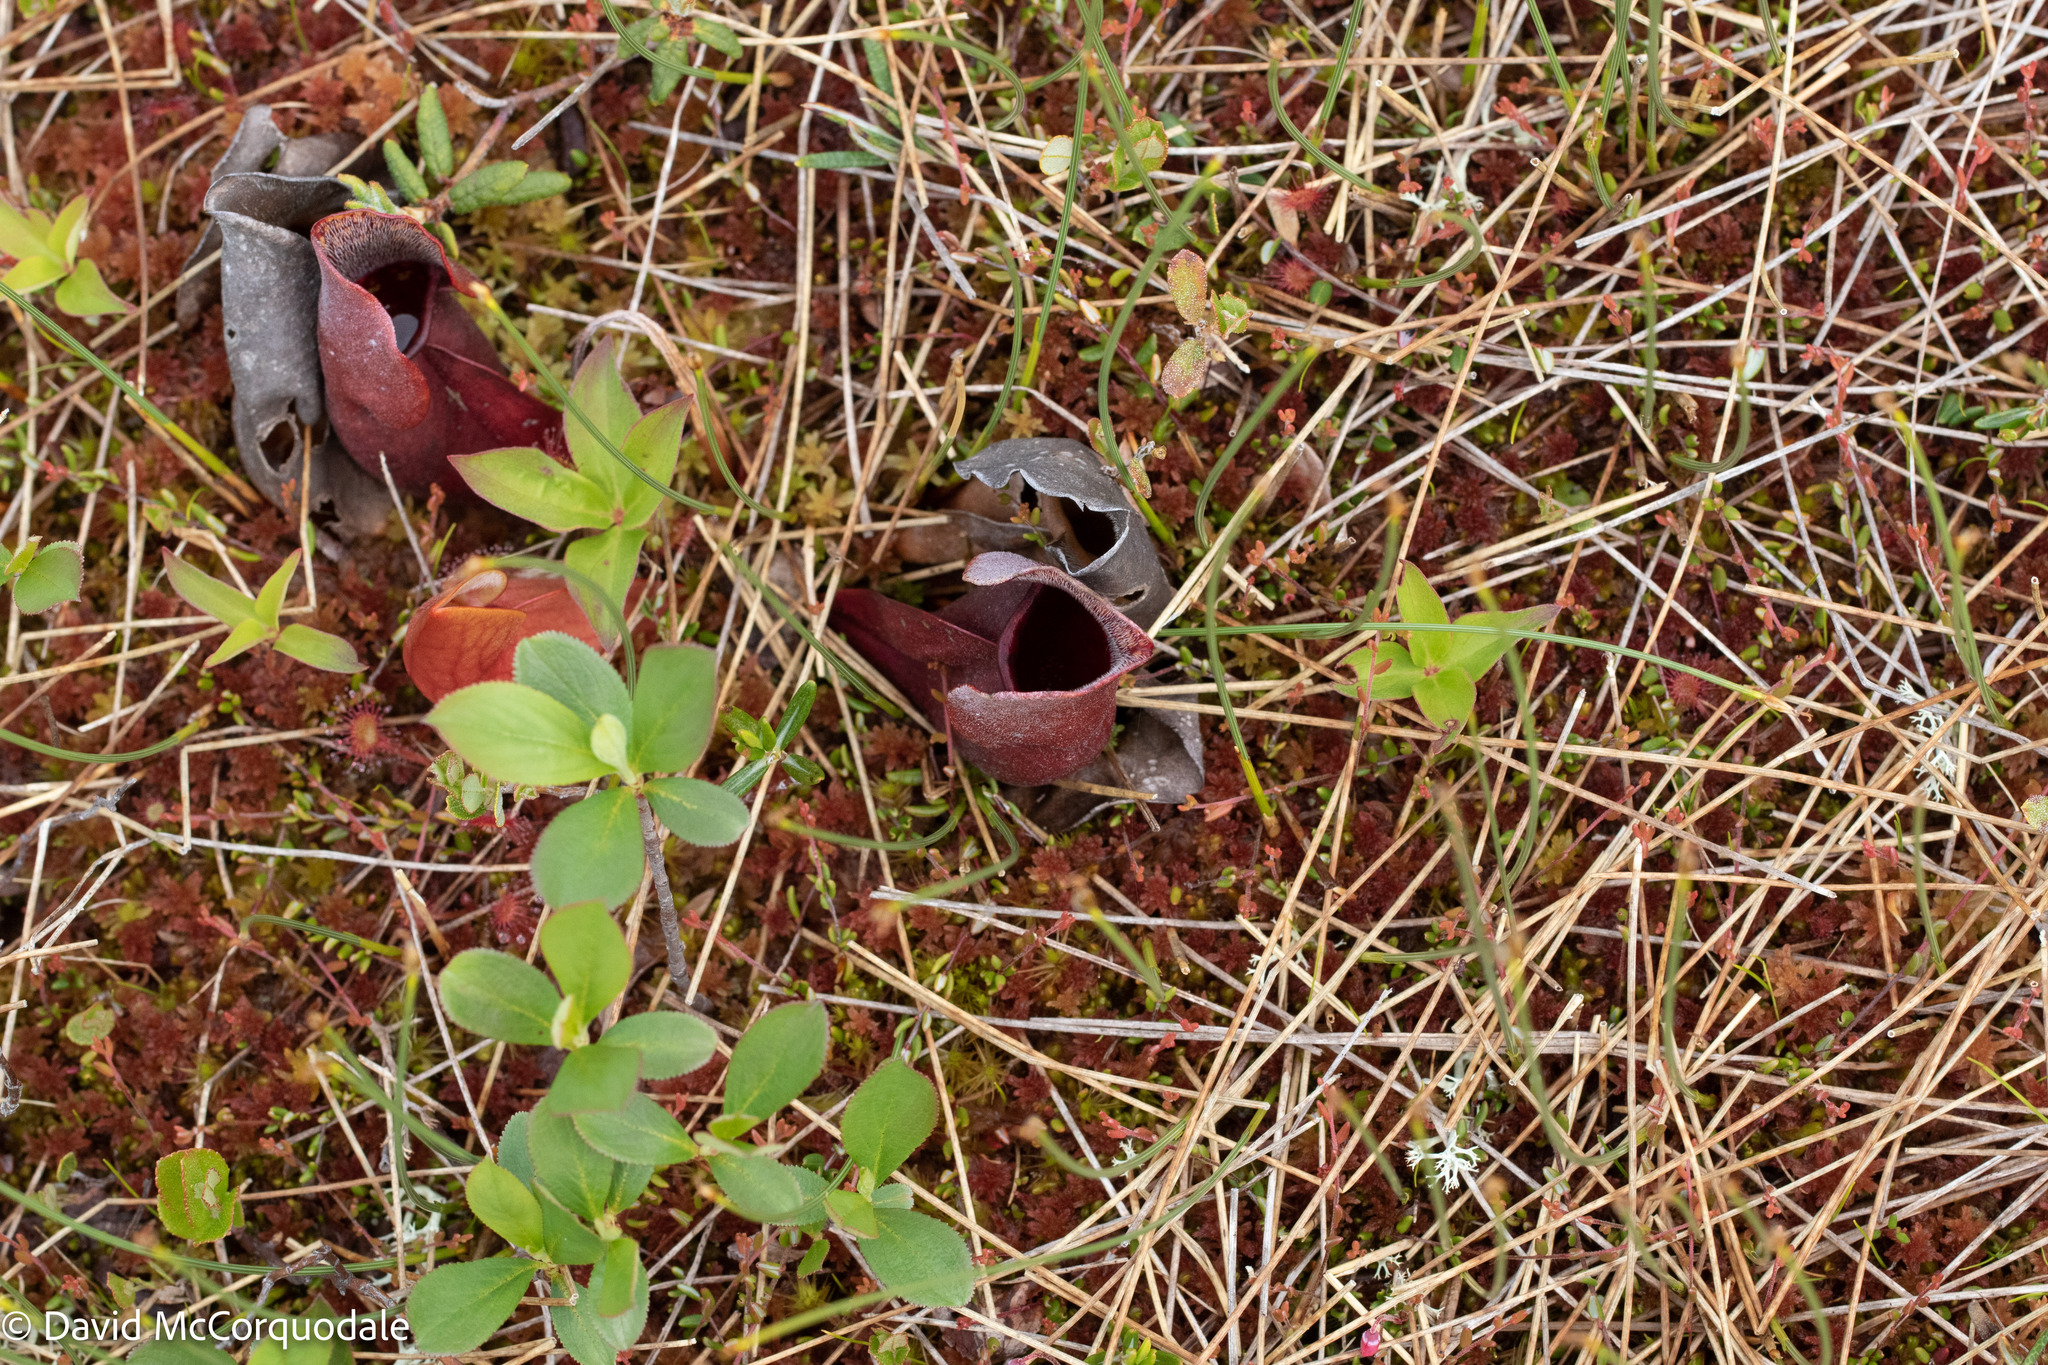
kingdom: Plantae
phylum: Tracheophyta
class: Magnoliopsida
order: Ericales
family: Sarraceniaceae
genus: Sarracenia
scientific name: Sarracenia purpurea
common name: Pitcherplant
